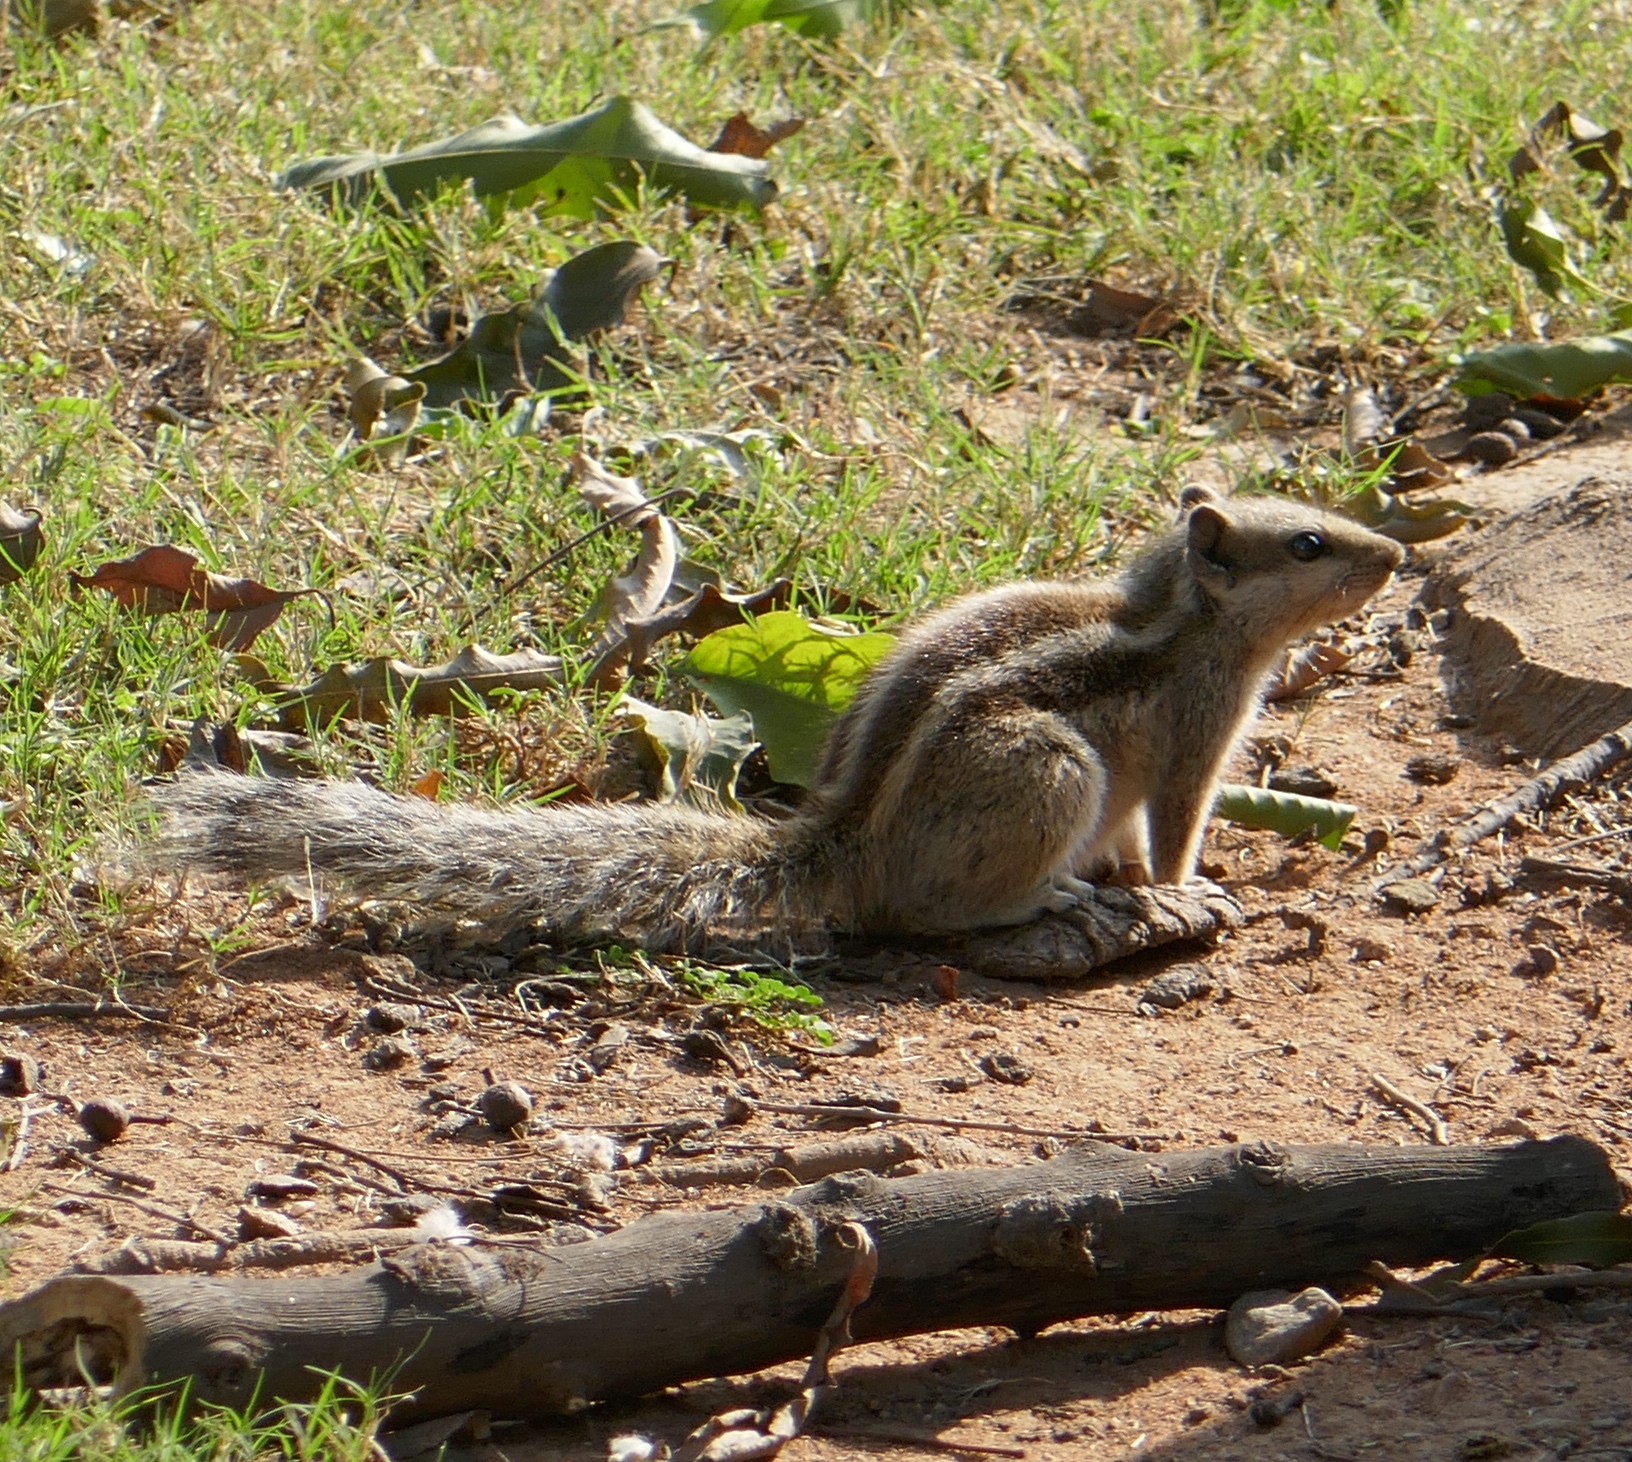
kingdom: Animalia
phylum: Chordata
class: Mammalia
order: Rodentia
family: Sciuridae
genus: Funambulus
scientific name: Funambulus pennantii
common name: Northern palm squirrel
